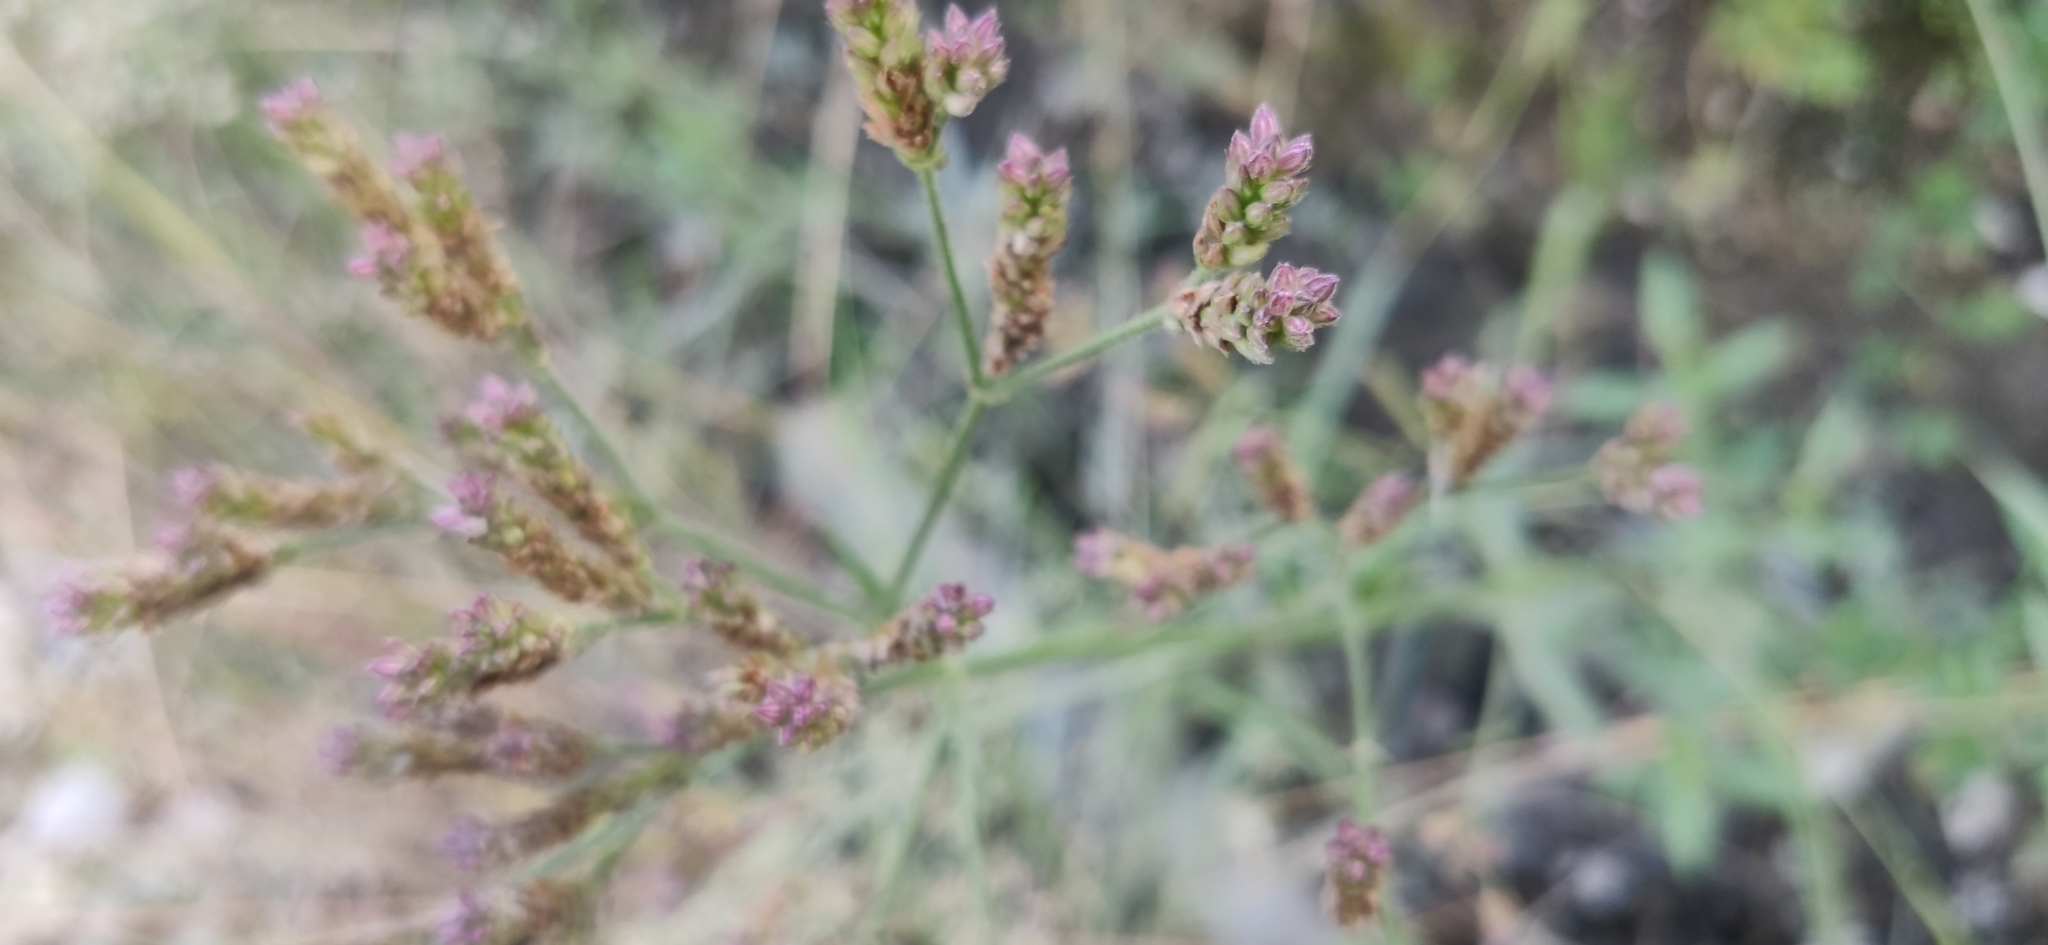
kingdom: Plantae
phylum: Tracheophyta
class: Magnoliopsida
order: Lamiales
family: Verbenaceae
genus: Verbena
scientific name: Verbena officinalis
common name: Vervain
